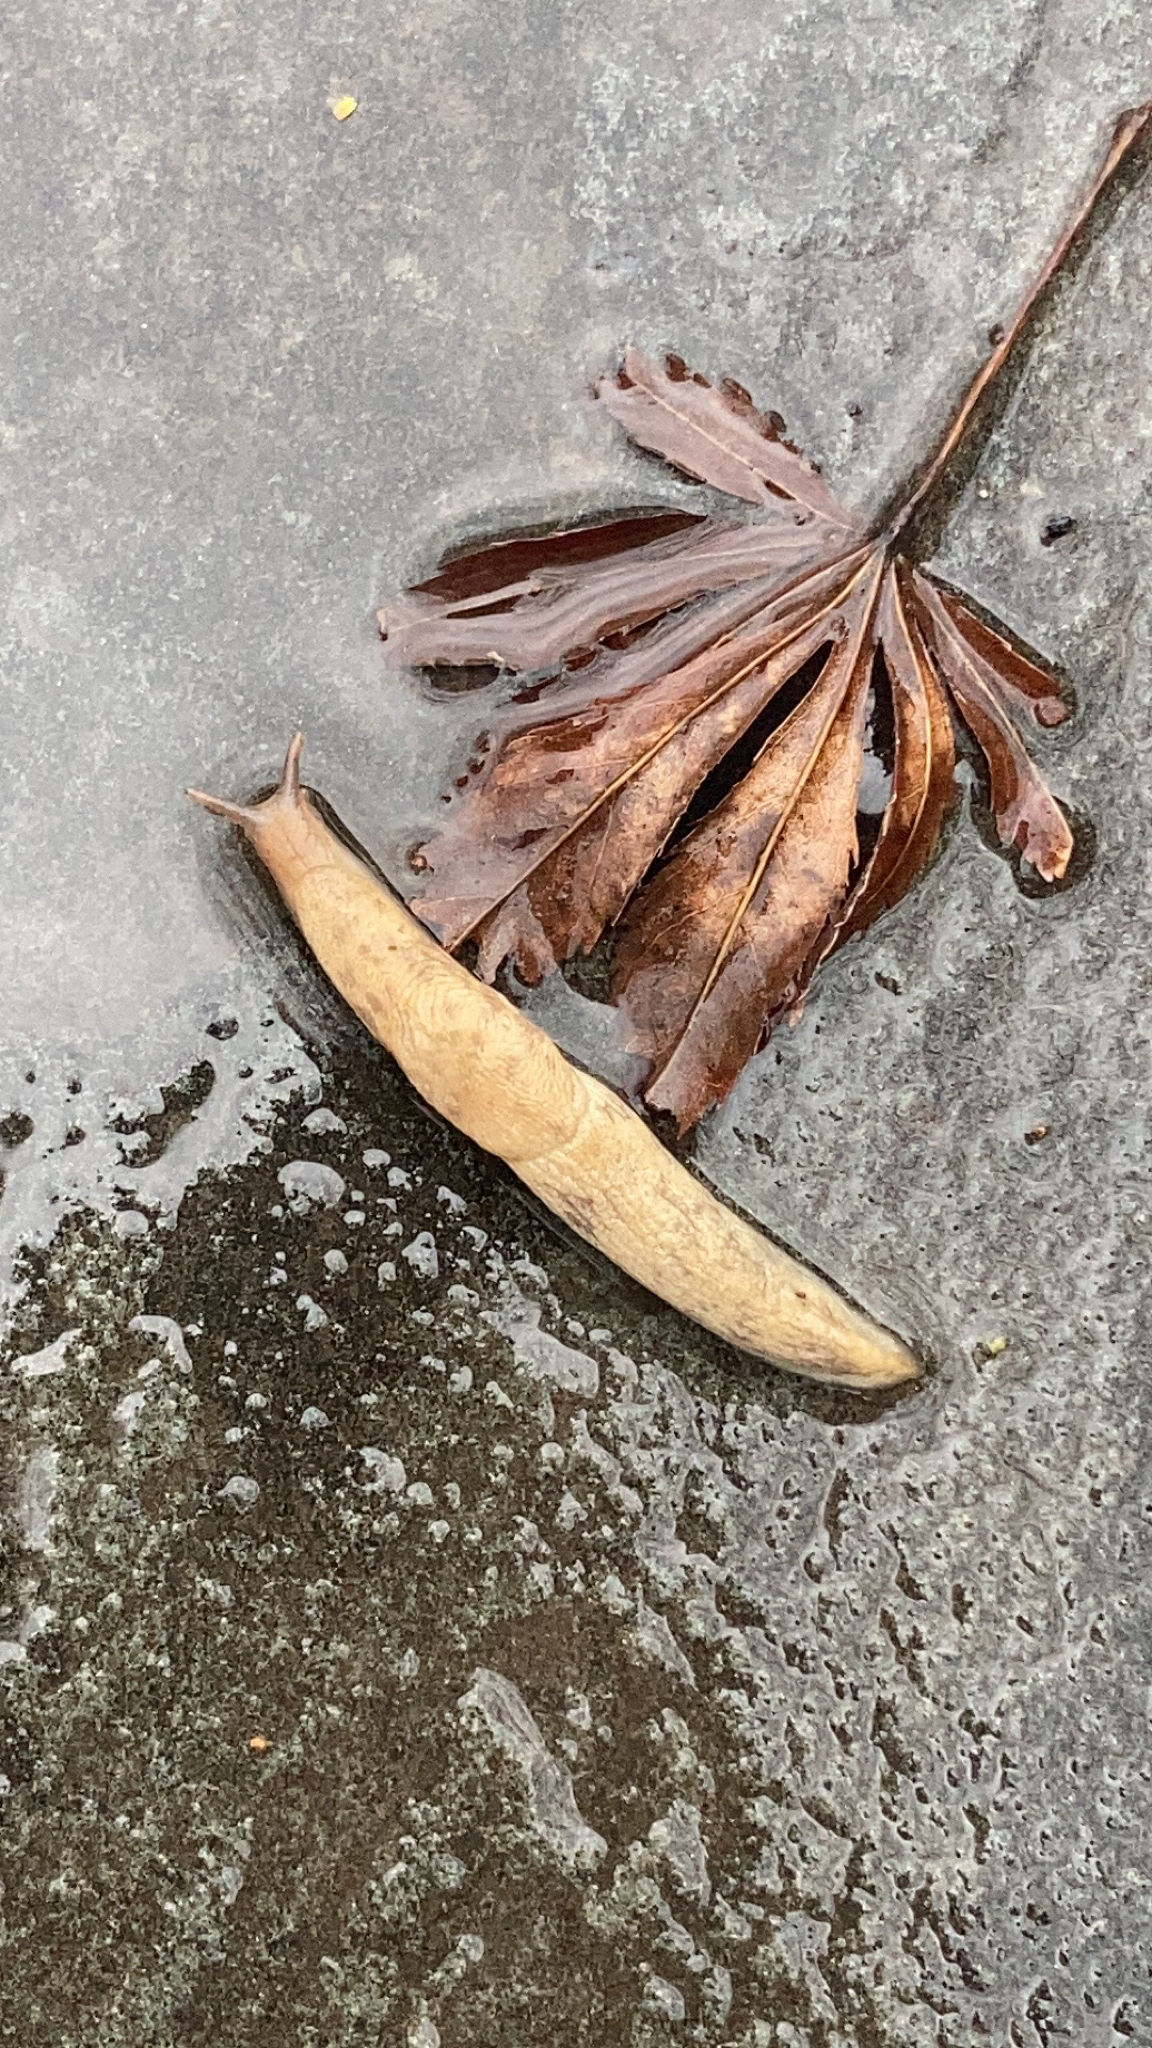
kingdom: Animalia
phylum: Mollusca
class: Gastropoda
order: Stylommatophora
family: Agriolimacidae
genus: Deroceras
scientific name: Deroceras reticulatum
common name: Gray field slug
